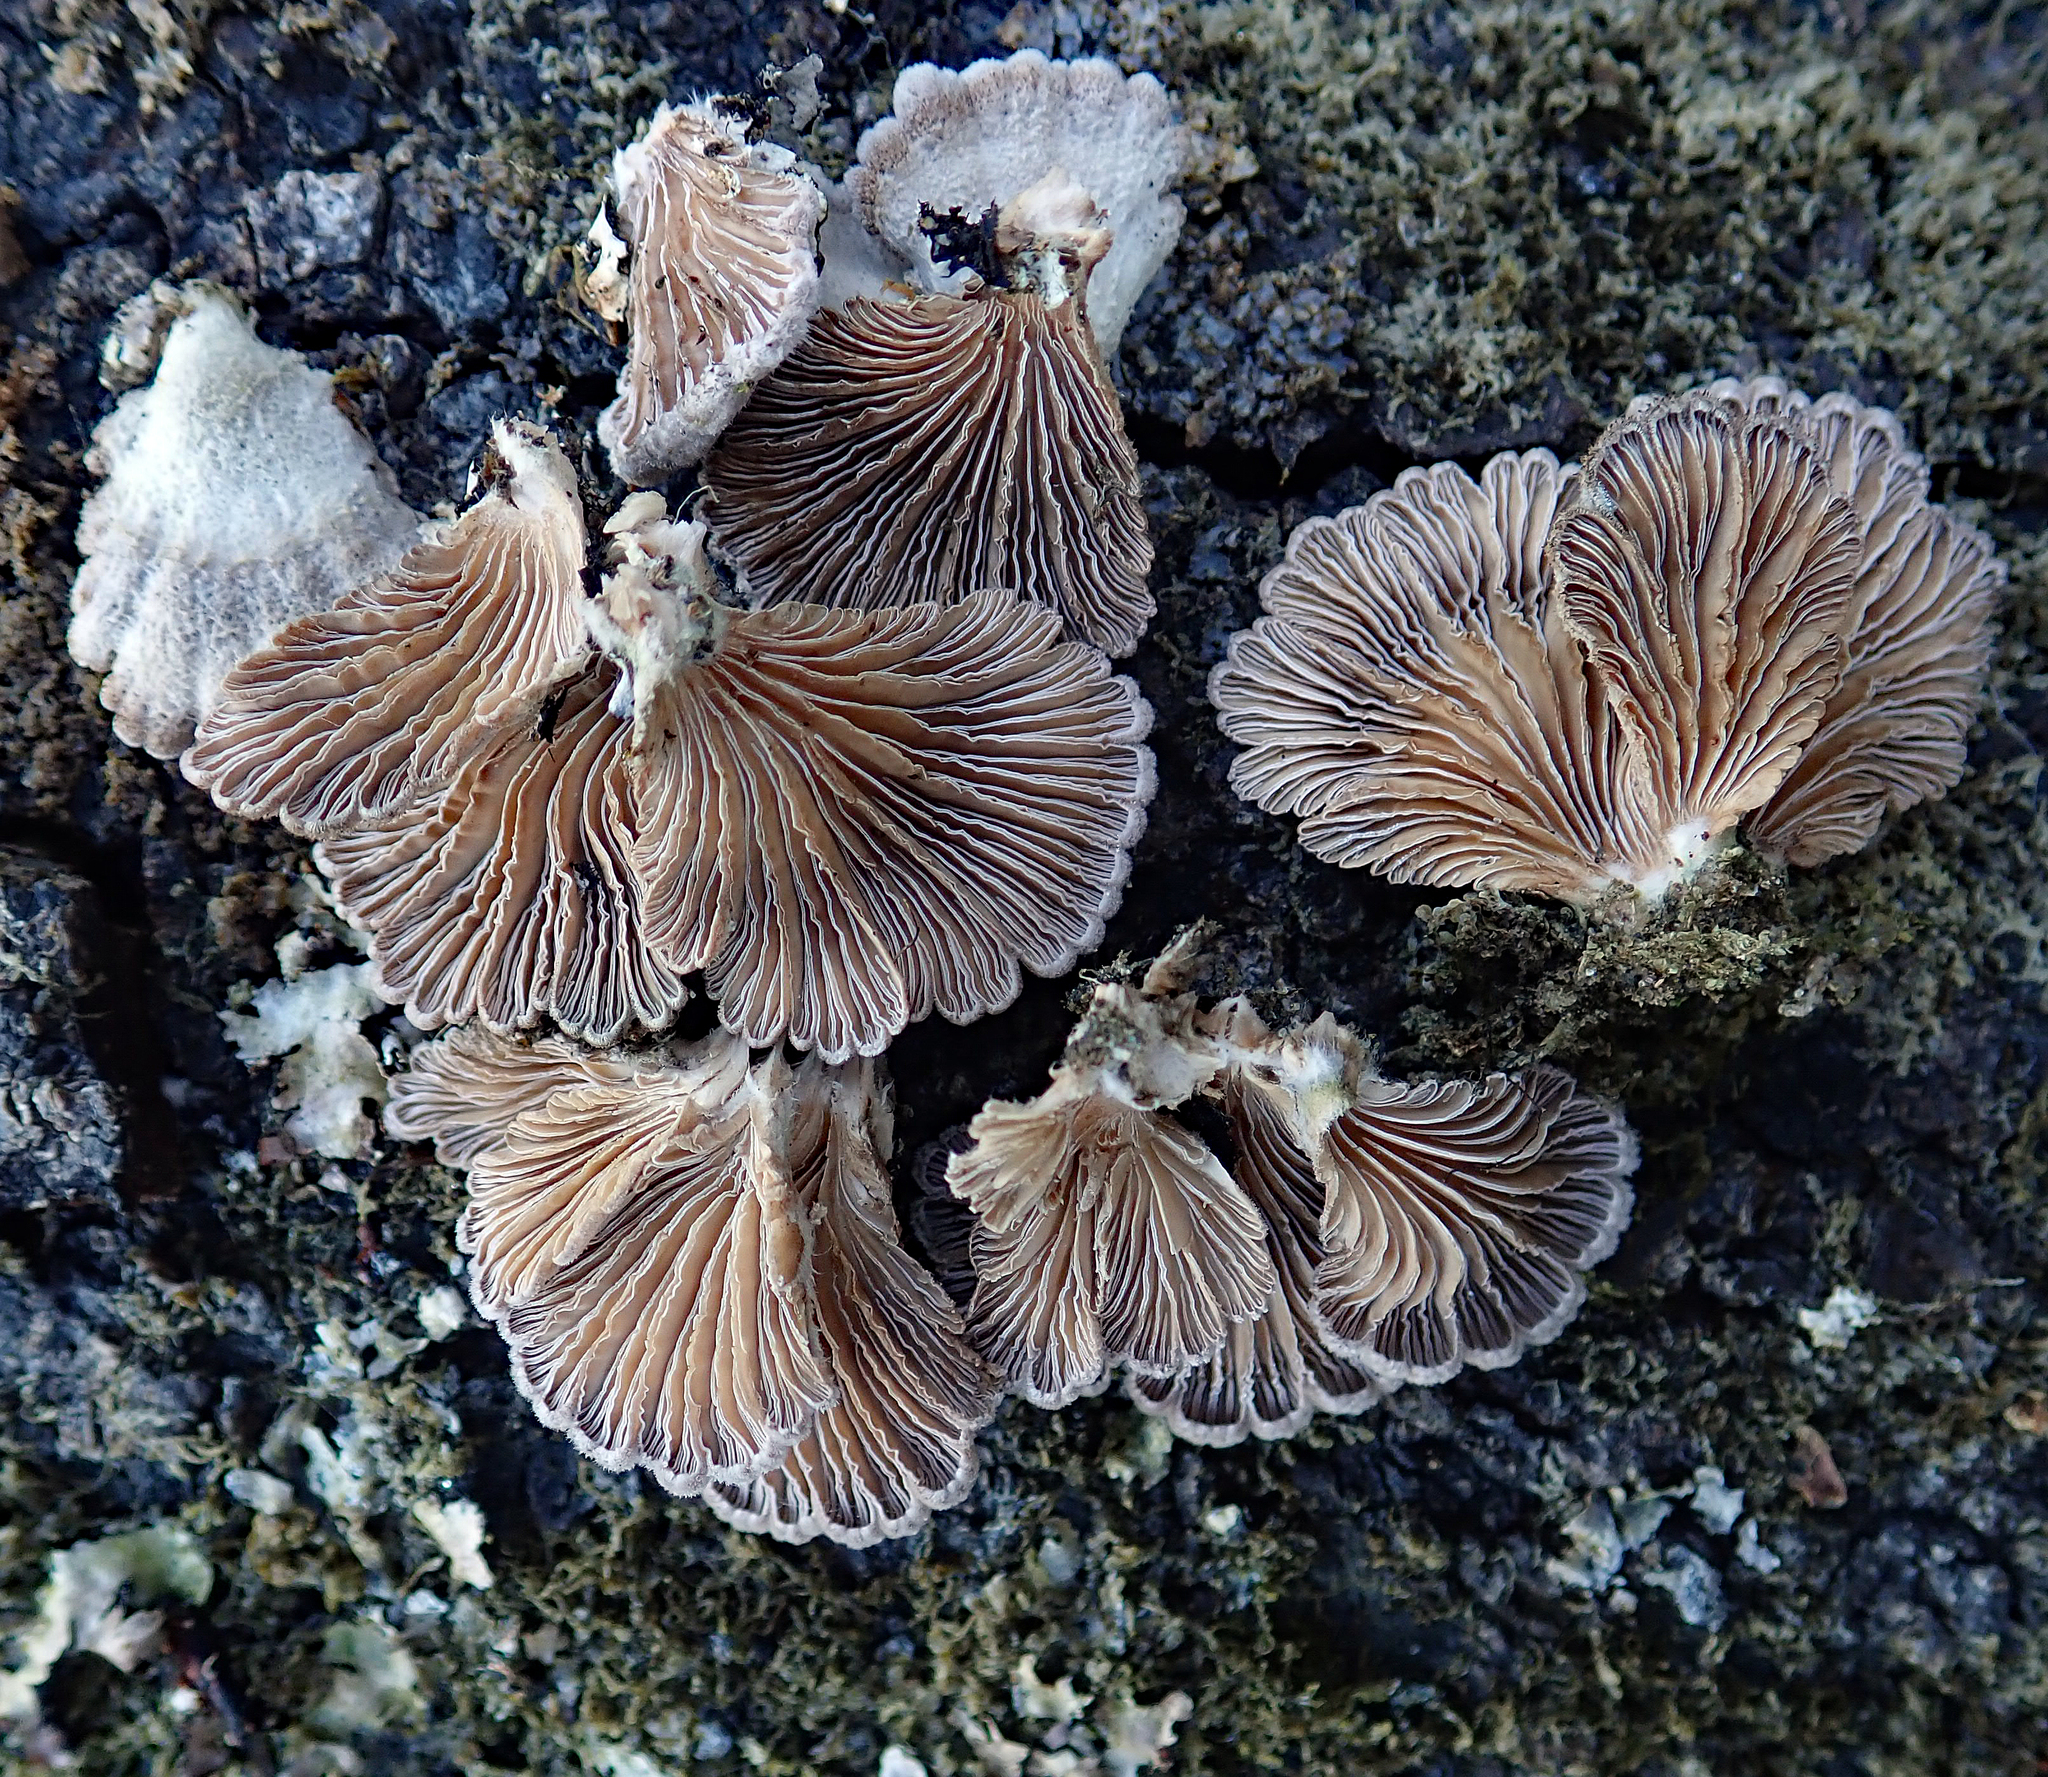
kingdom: Fungi
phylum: Basidiomycota
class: Agaricomycetes
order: Agaricales
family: Schizophyllaceae
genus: Schizophyllum
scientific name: Schizophyllum commune
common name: Common porecrust
